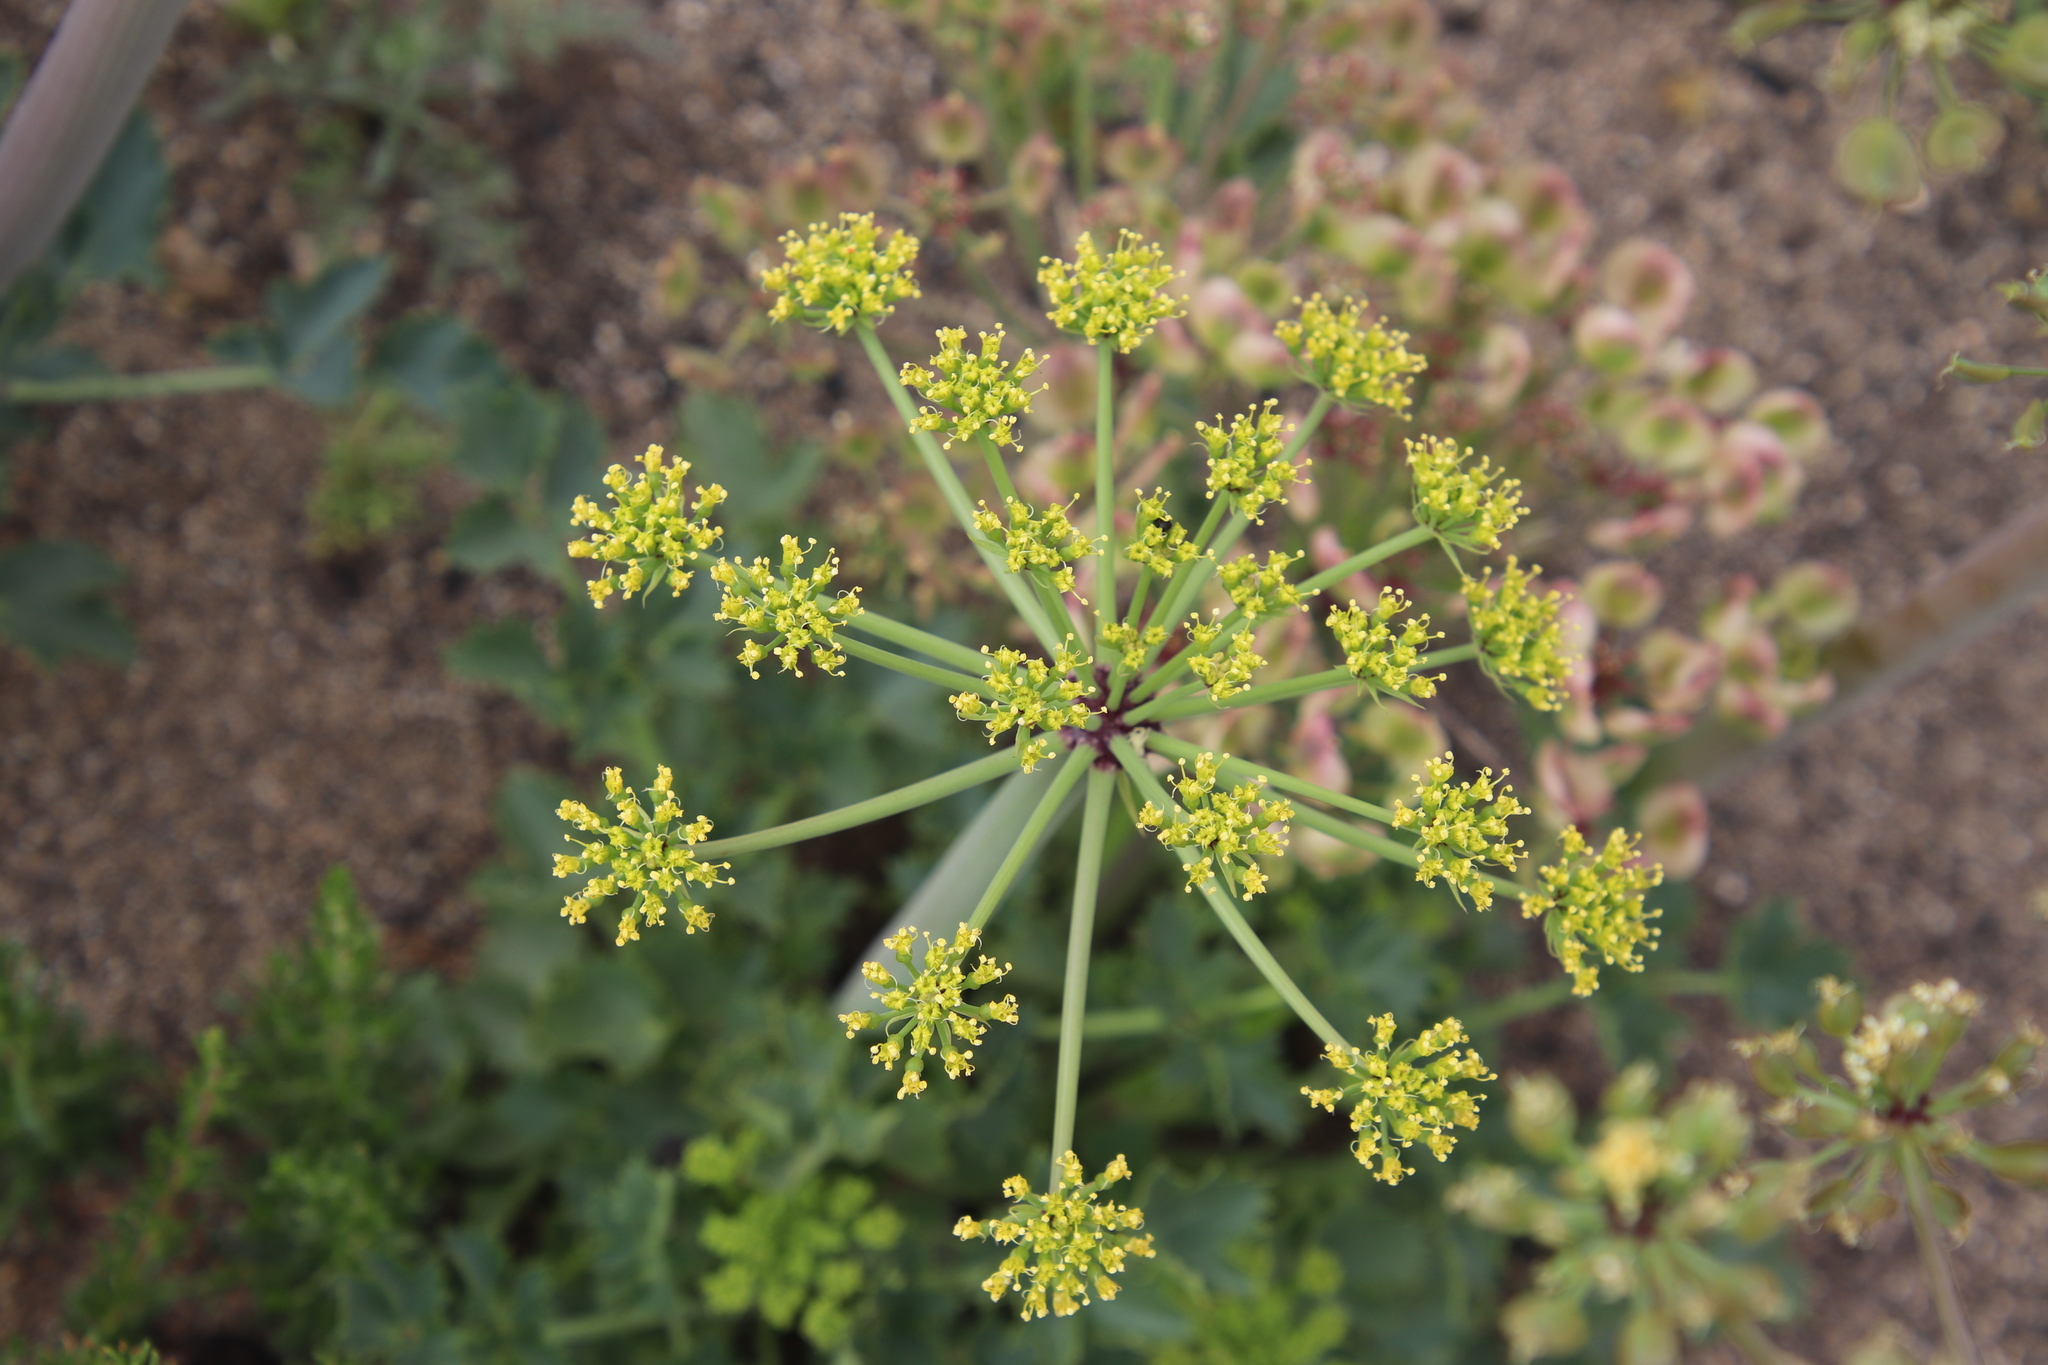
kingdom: Plantae
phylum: Tracheophyta
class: Magnoliopsida
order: Apiales
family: Apiaceae
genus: Lomatium
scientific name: Lomatium lucidum
